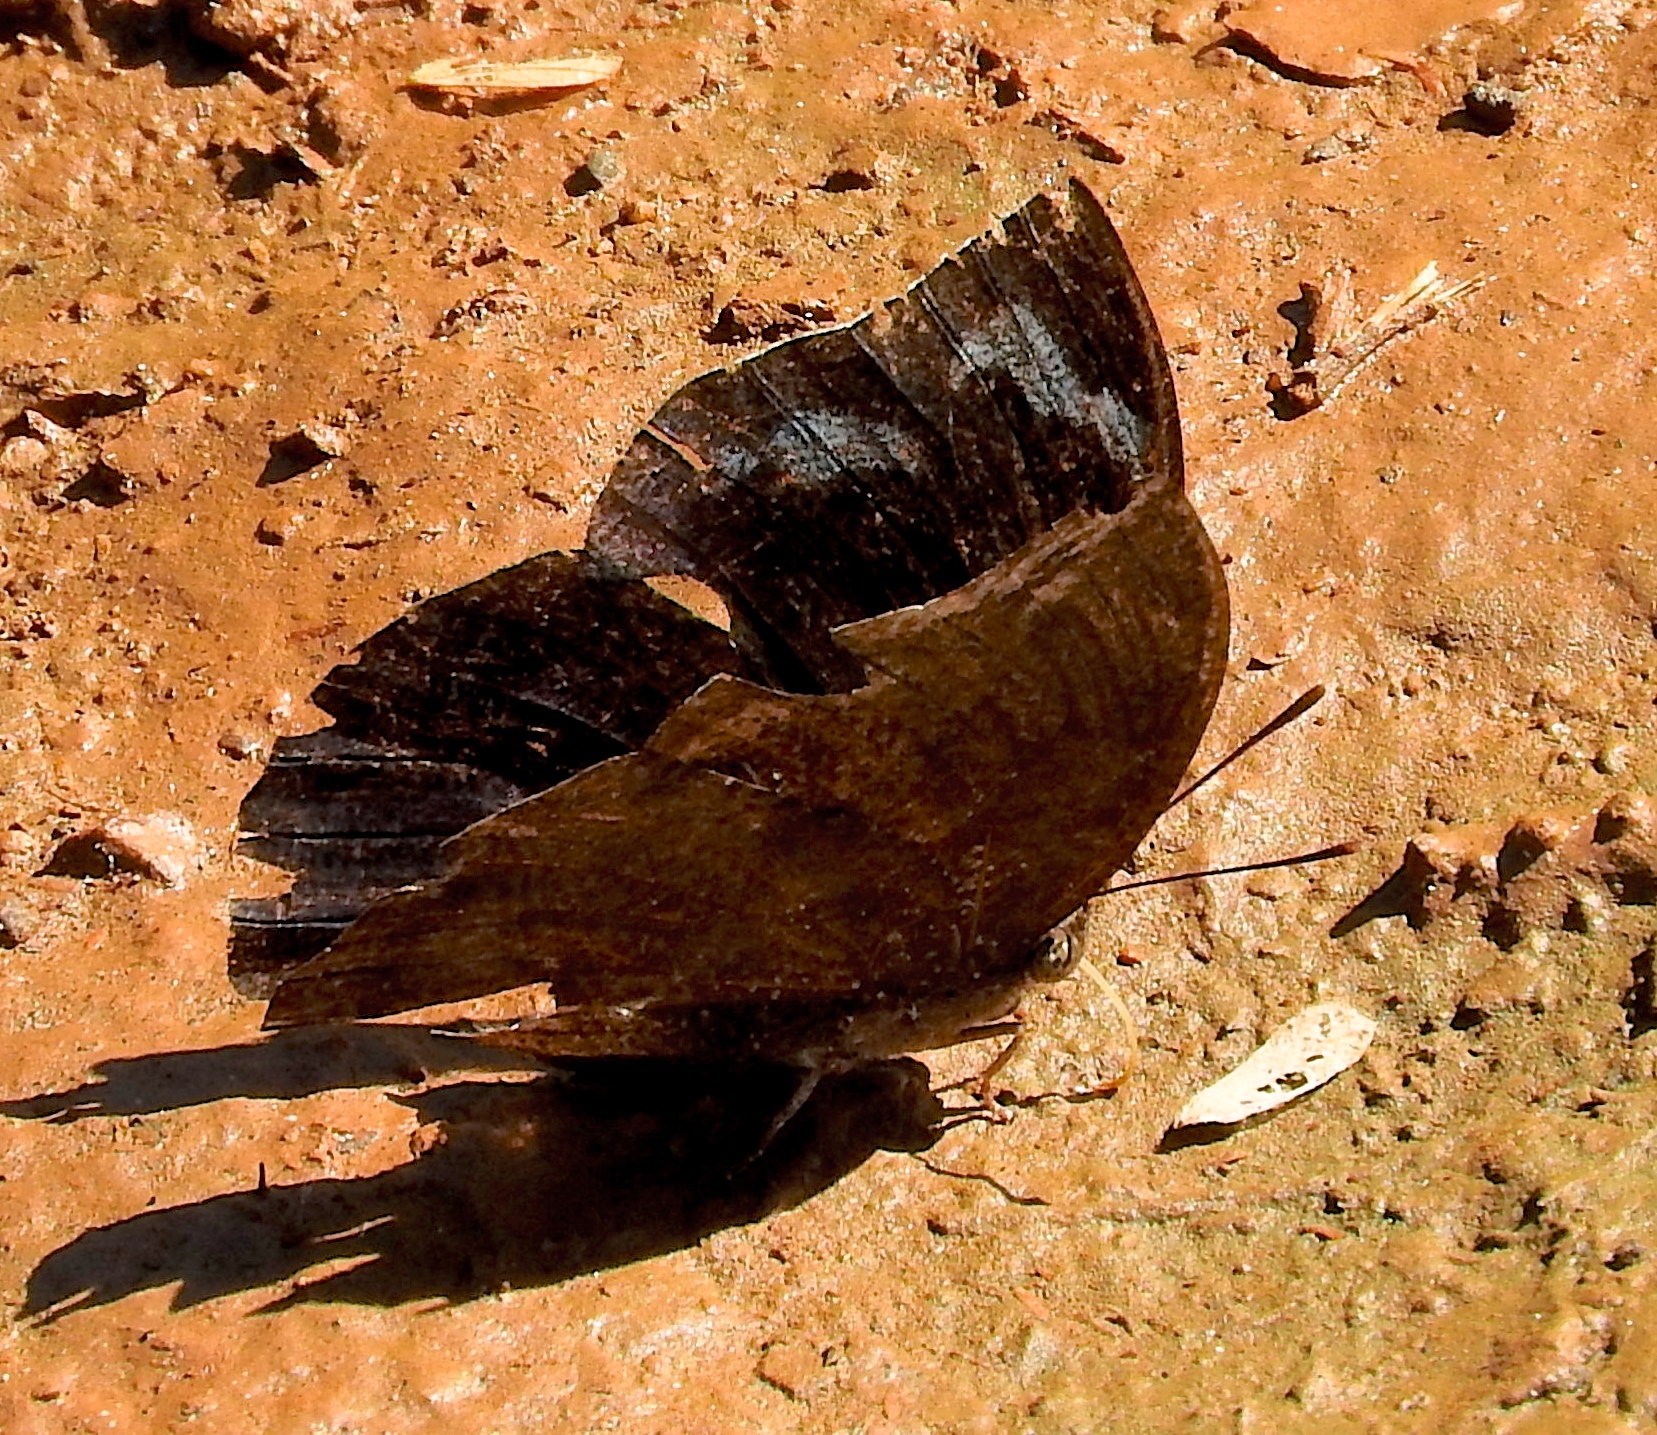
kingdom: Animalia
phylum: Arthropoda
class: Insecta
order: Lepidoptera
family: Nymphalidae
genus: Memphis
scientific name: Memphis forreri
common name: Forrer's leafwing
